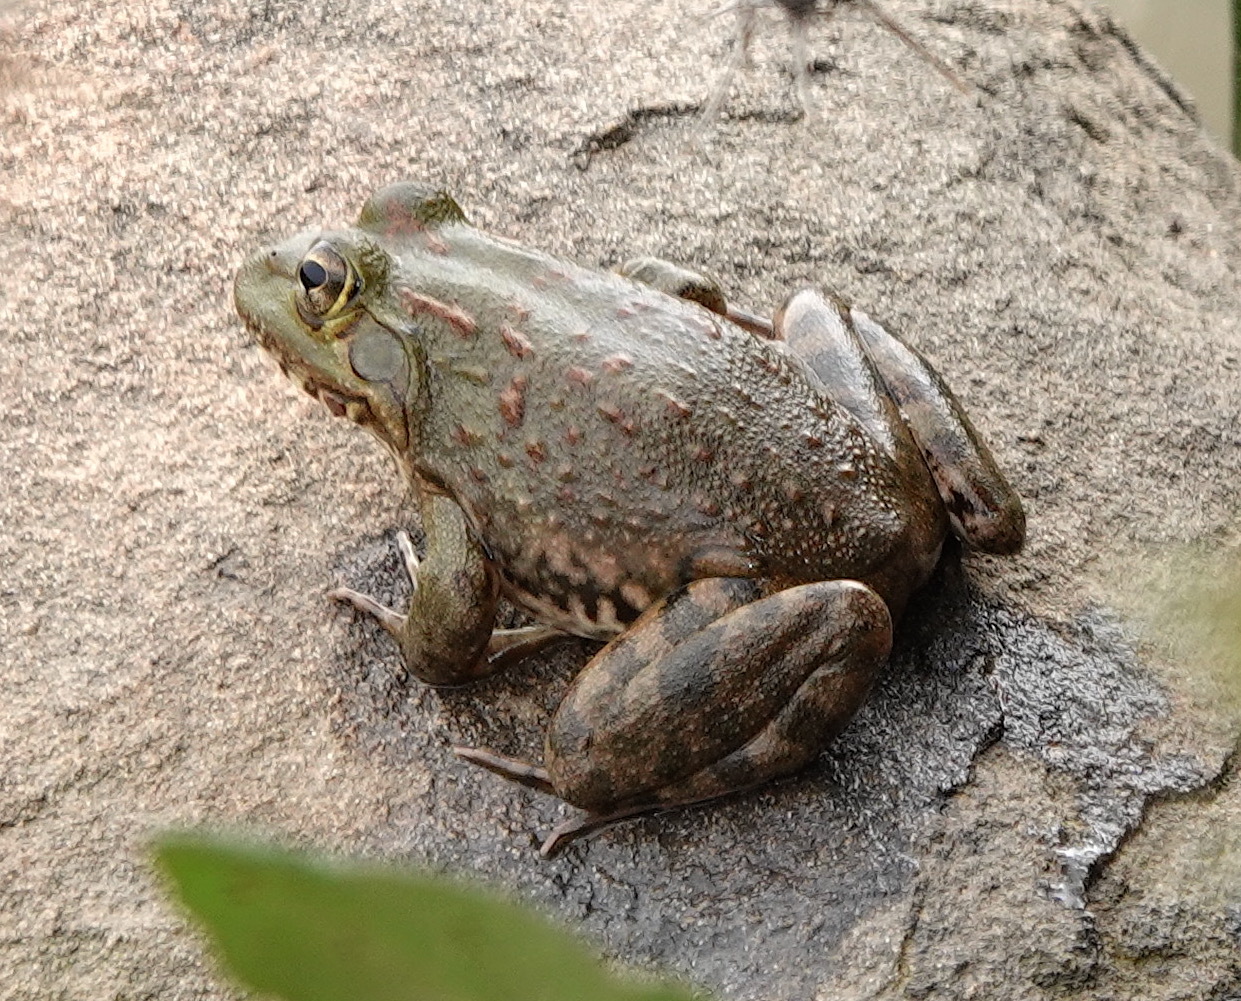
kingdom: Animalia
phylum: Chordata
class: Amphibia
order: Anura
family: Pyxicephalidae
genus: Amietia
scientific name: Amietia poyntoni
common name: Poynton's river frog
